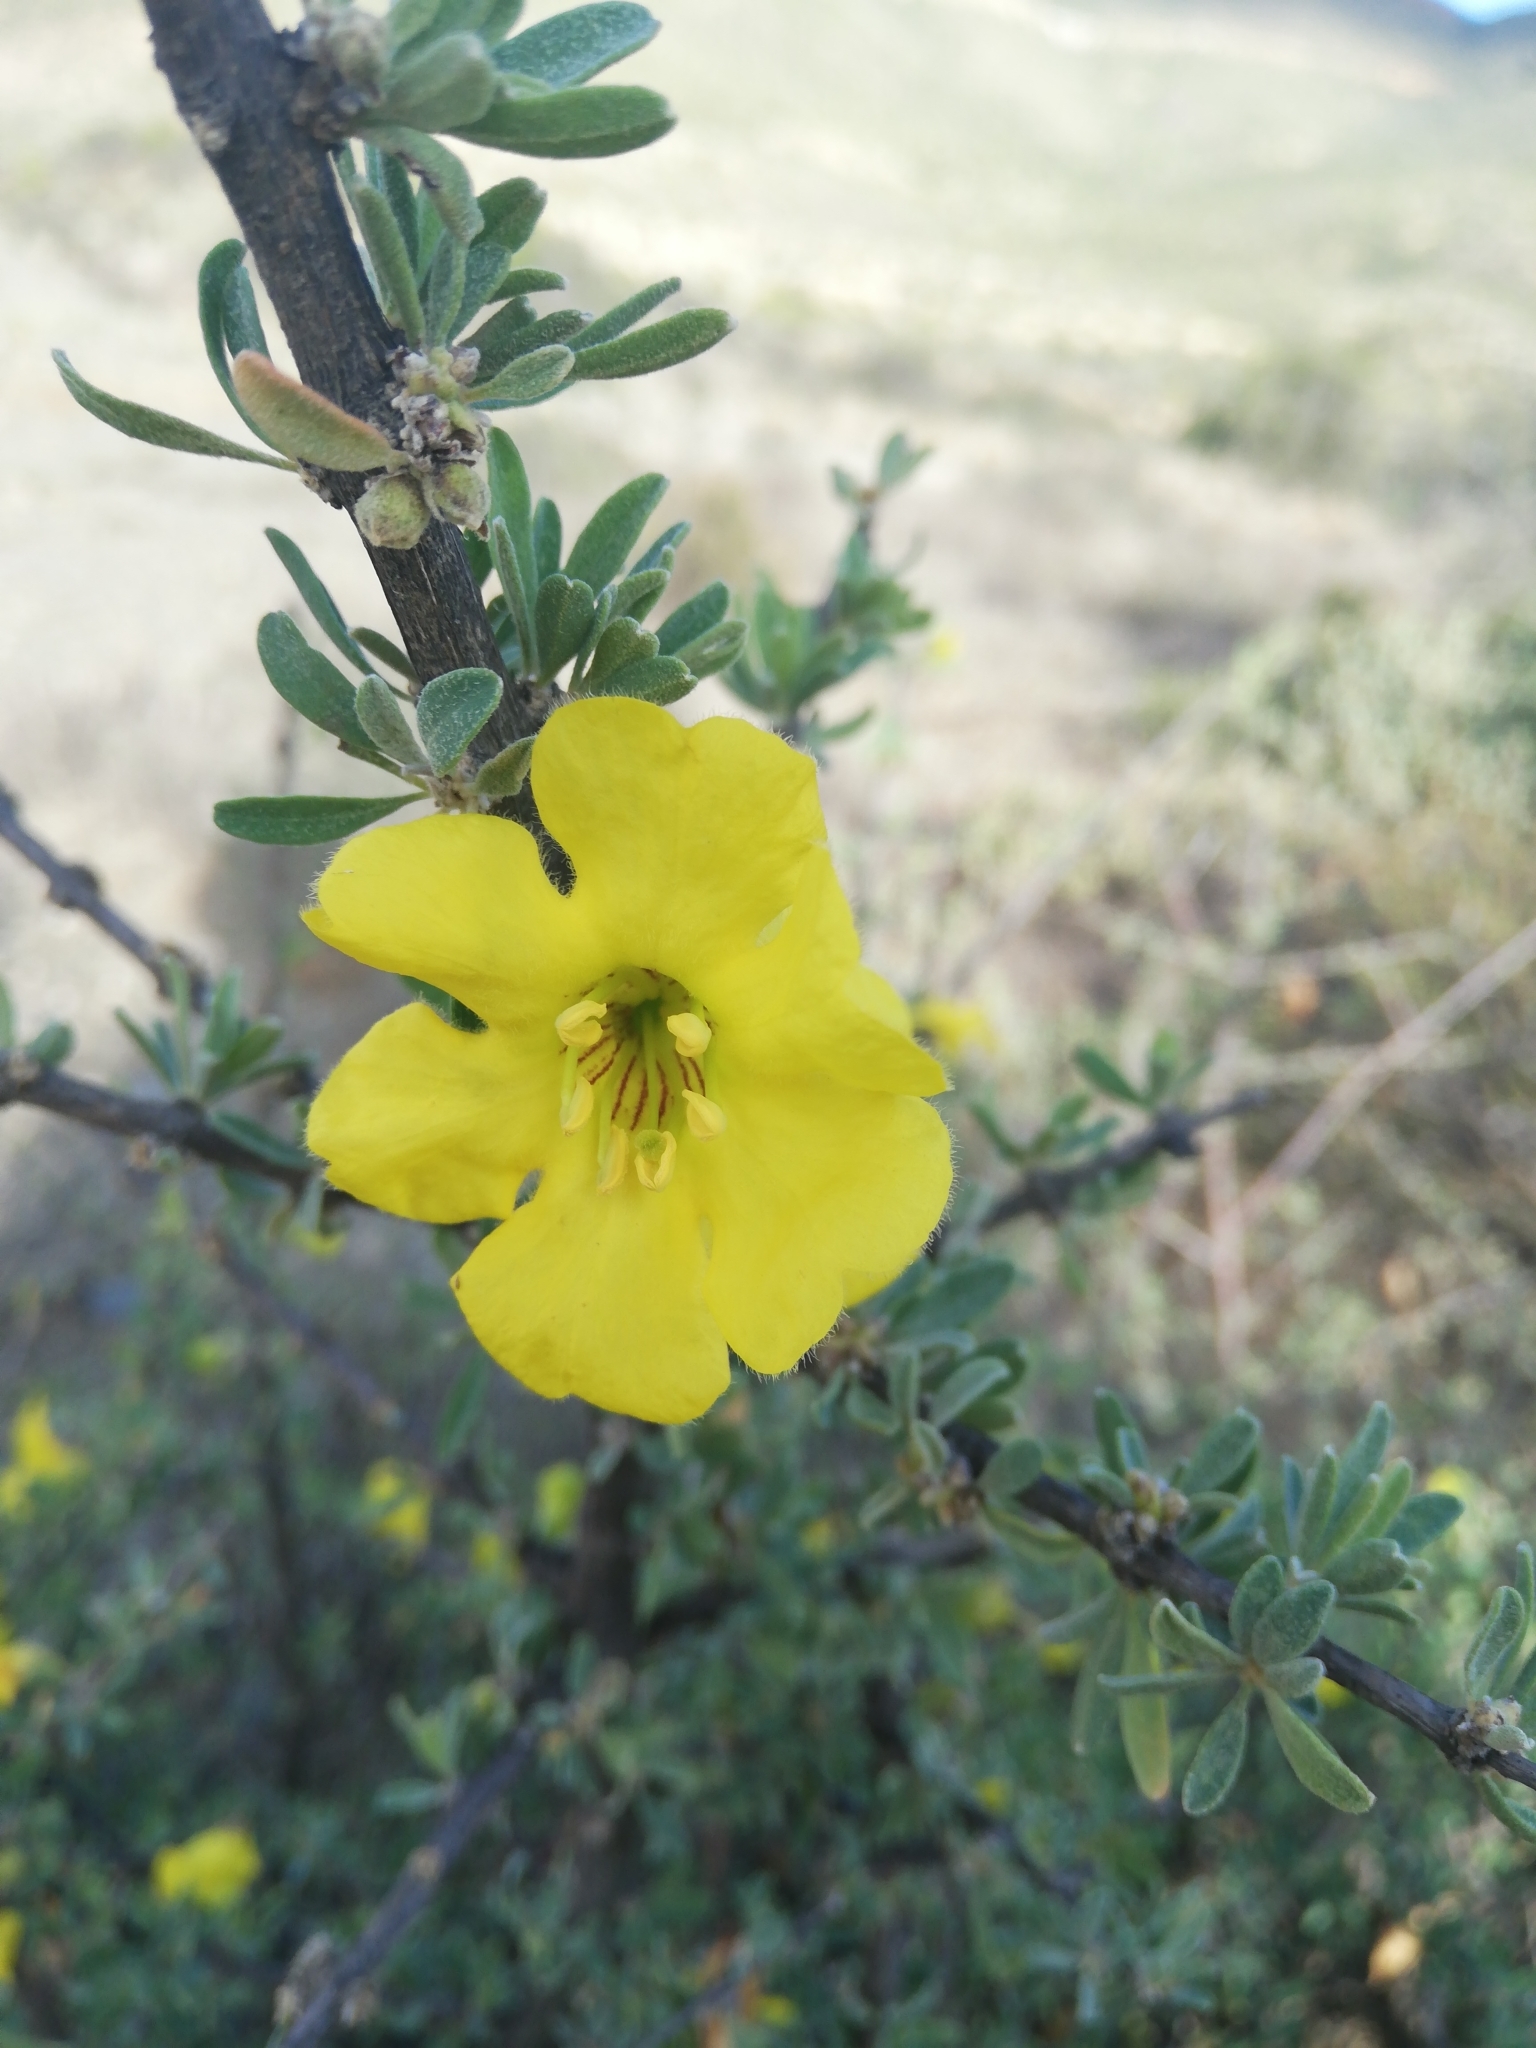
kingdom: Plantae
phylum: Tracheophyta
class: Magnoliopsida
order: Lamiales
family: Bignoniaceae
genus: Rhigozum
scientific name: Rhigozum obovatum
